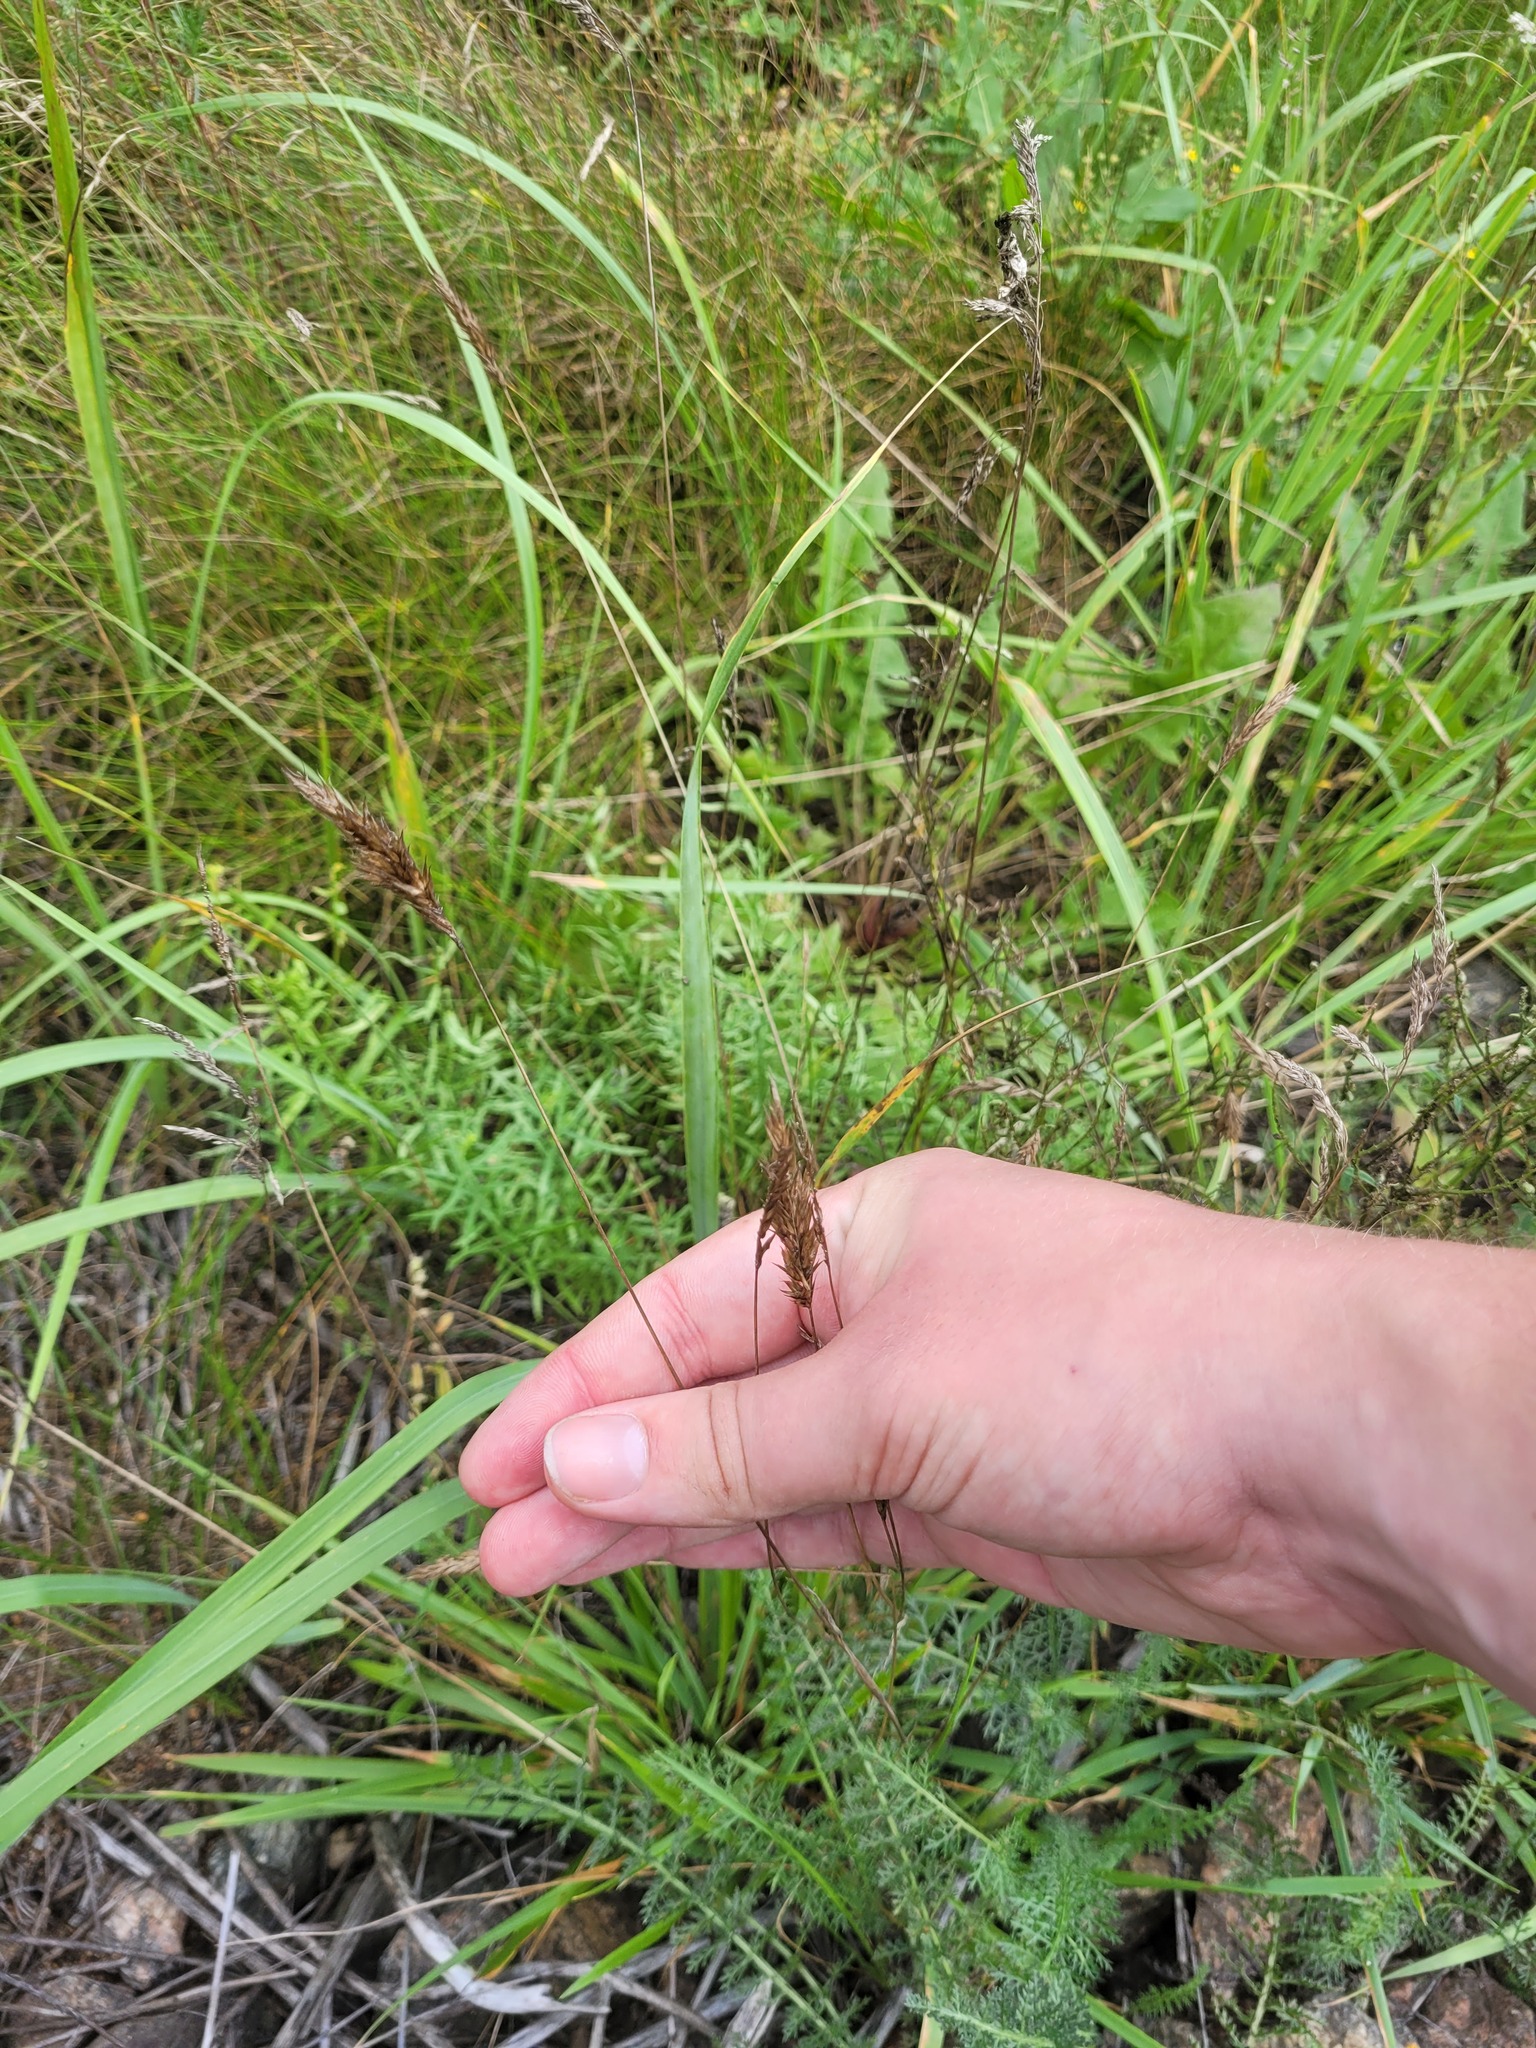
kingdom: Plantae
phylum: Tracheophyta
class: Liliopsida
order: Poales
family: Poaceae
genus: Anthoxanthum
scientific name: Anthoxanthum odoratum
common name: Sweet vernalgrass
